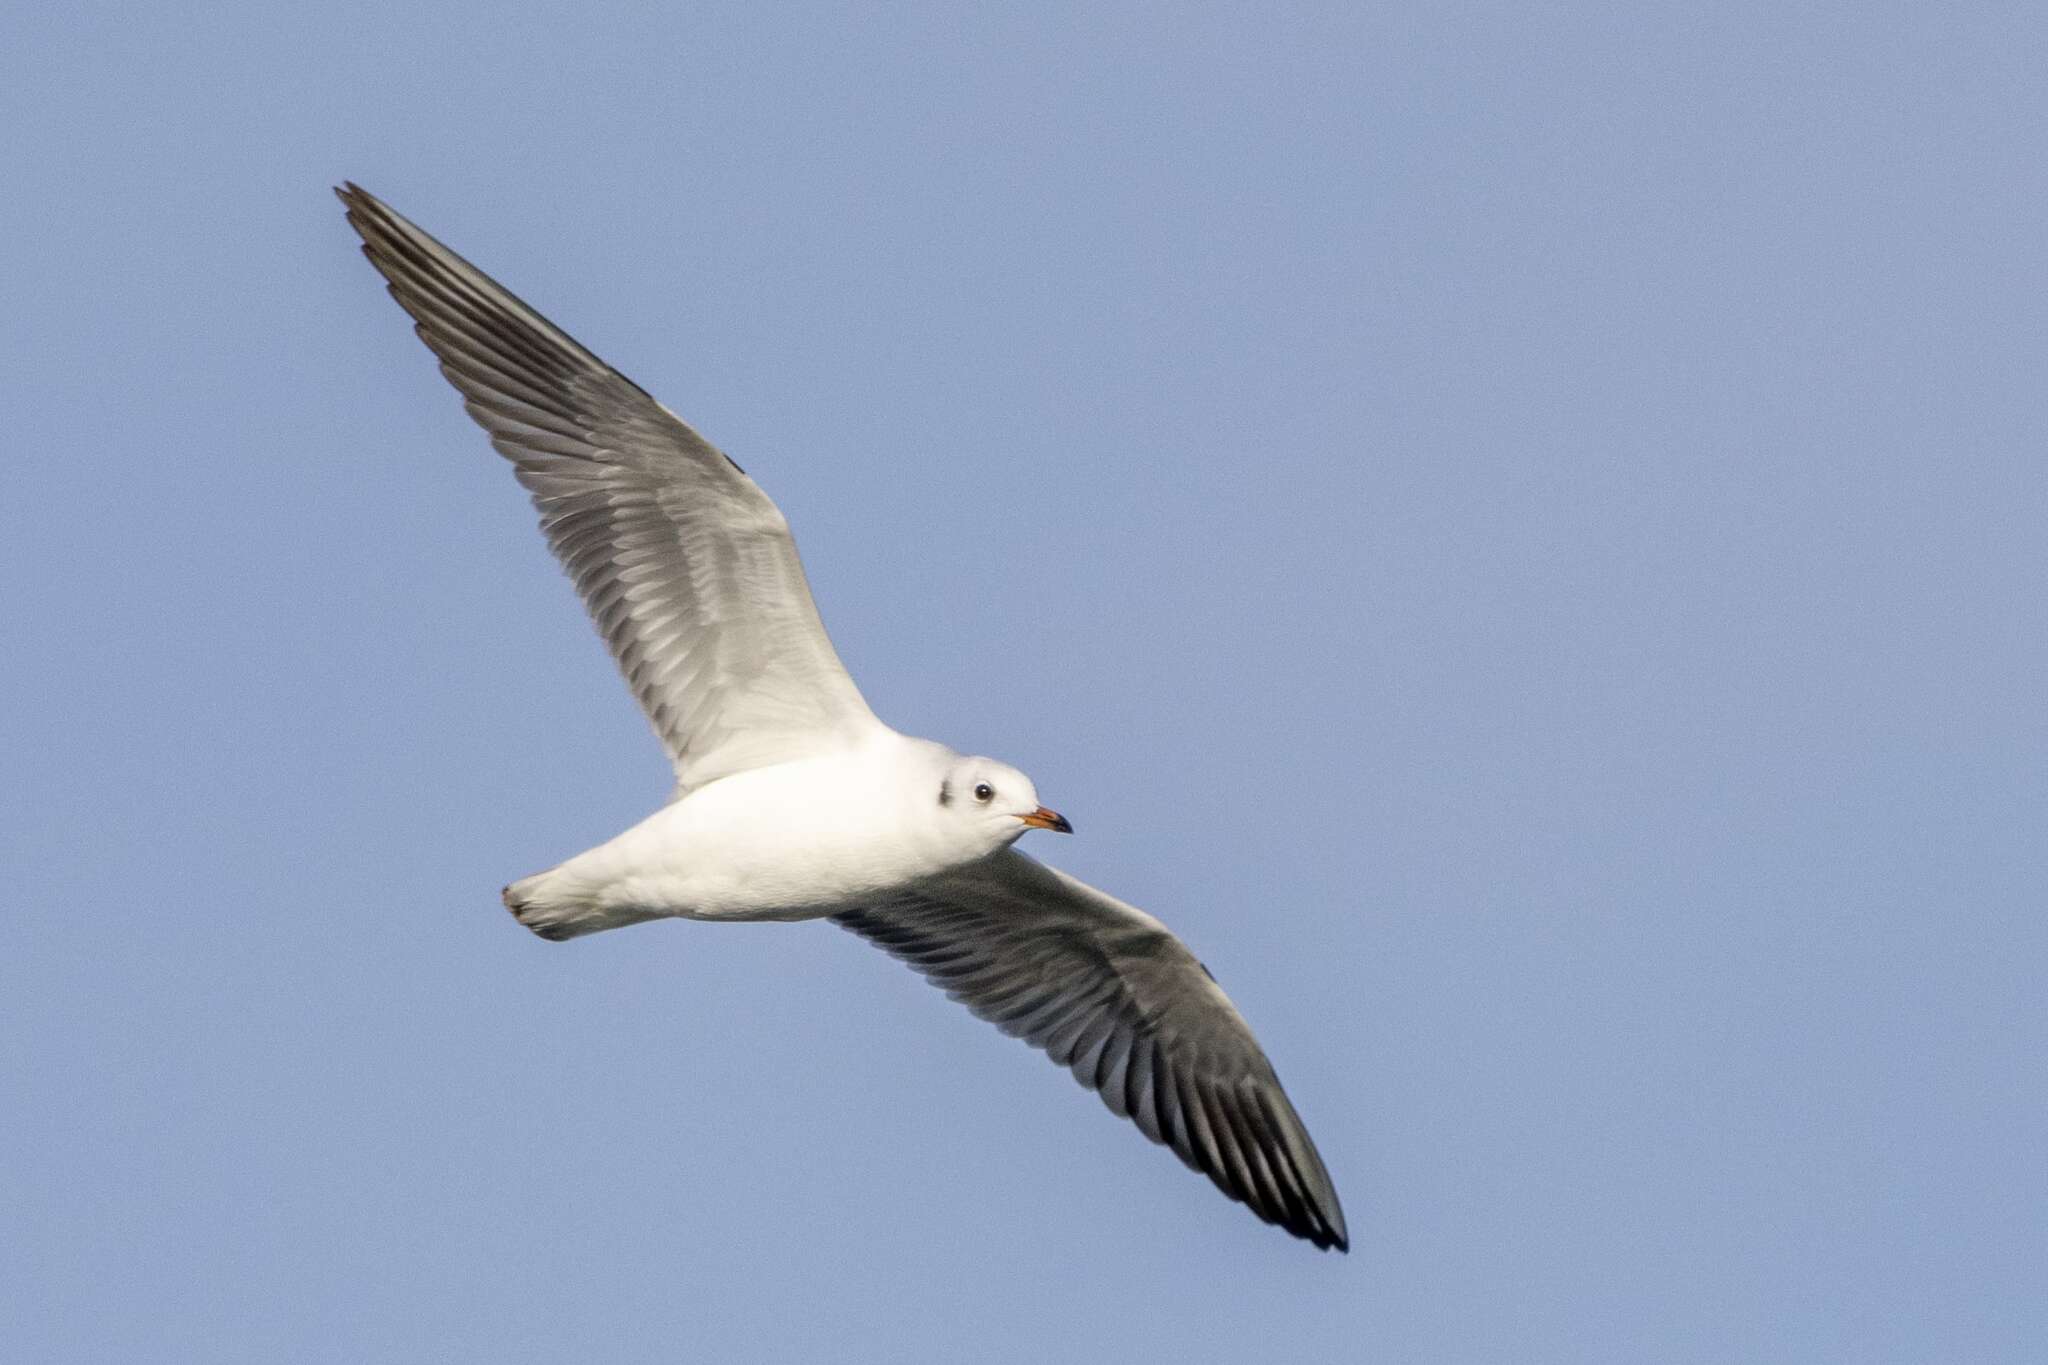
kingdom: Animalia
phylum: Chordata
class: Aves
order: Charadriiformes
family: Laridae
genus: Chroicocephalus
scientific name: Chroicocephalus ridibundus
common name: Black-headed gull
